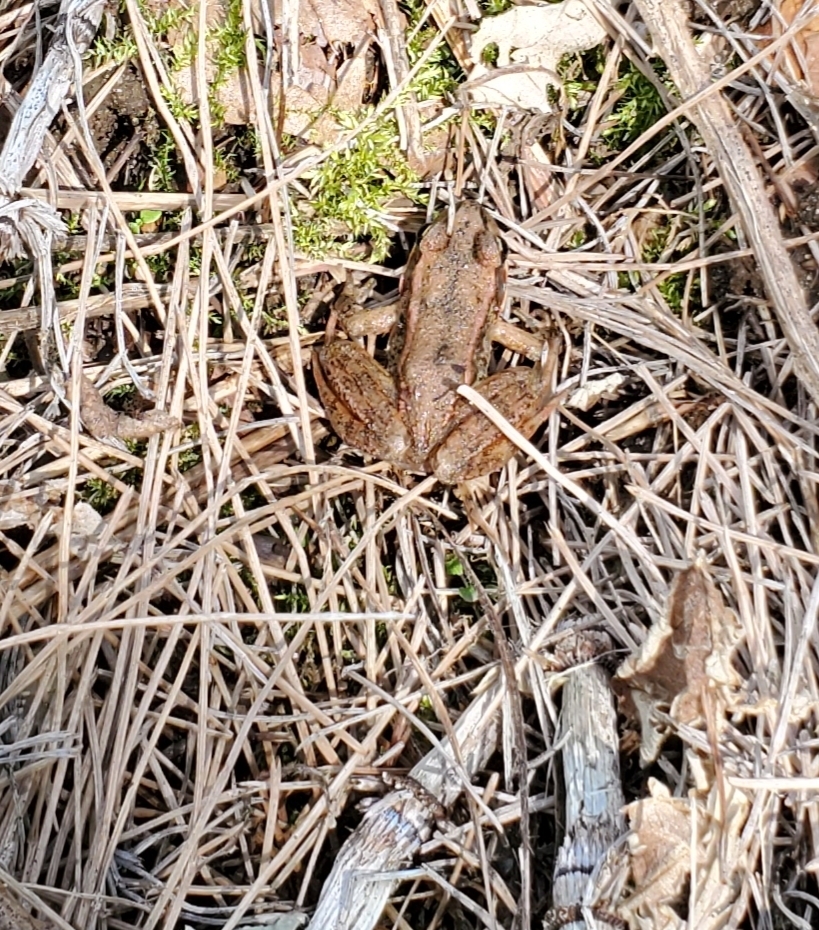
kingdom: Animalia
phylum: Chordata
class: Amphibia
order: Anura
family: Ranidae
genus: Rana
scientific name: Rana aurora
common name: Red-legged frog
